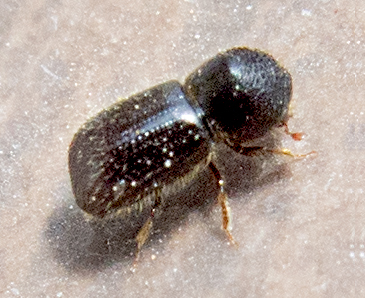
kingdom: Animalia
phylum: Arthropoda
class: Insecta
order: Coleoptera
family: Curculionidae
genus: Anisandrus
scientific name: Anisandrus dispar
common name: European shothole borer
